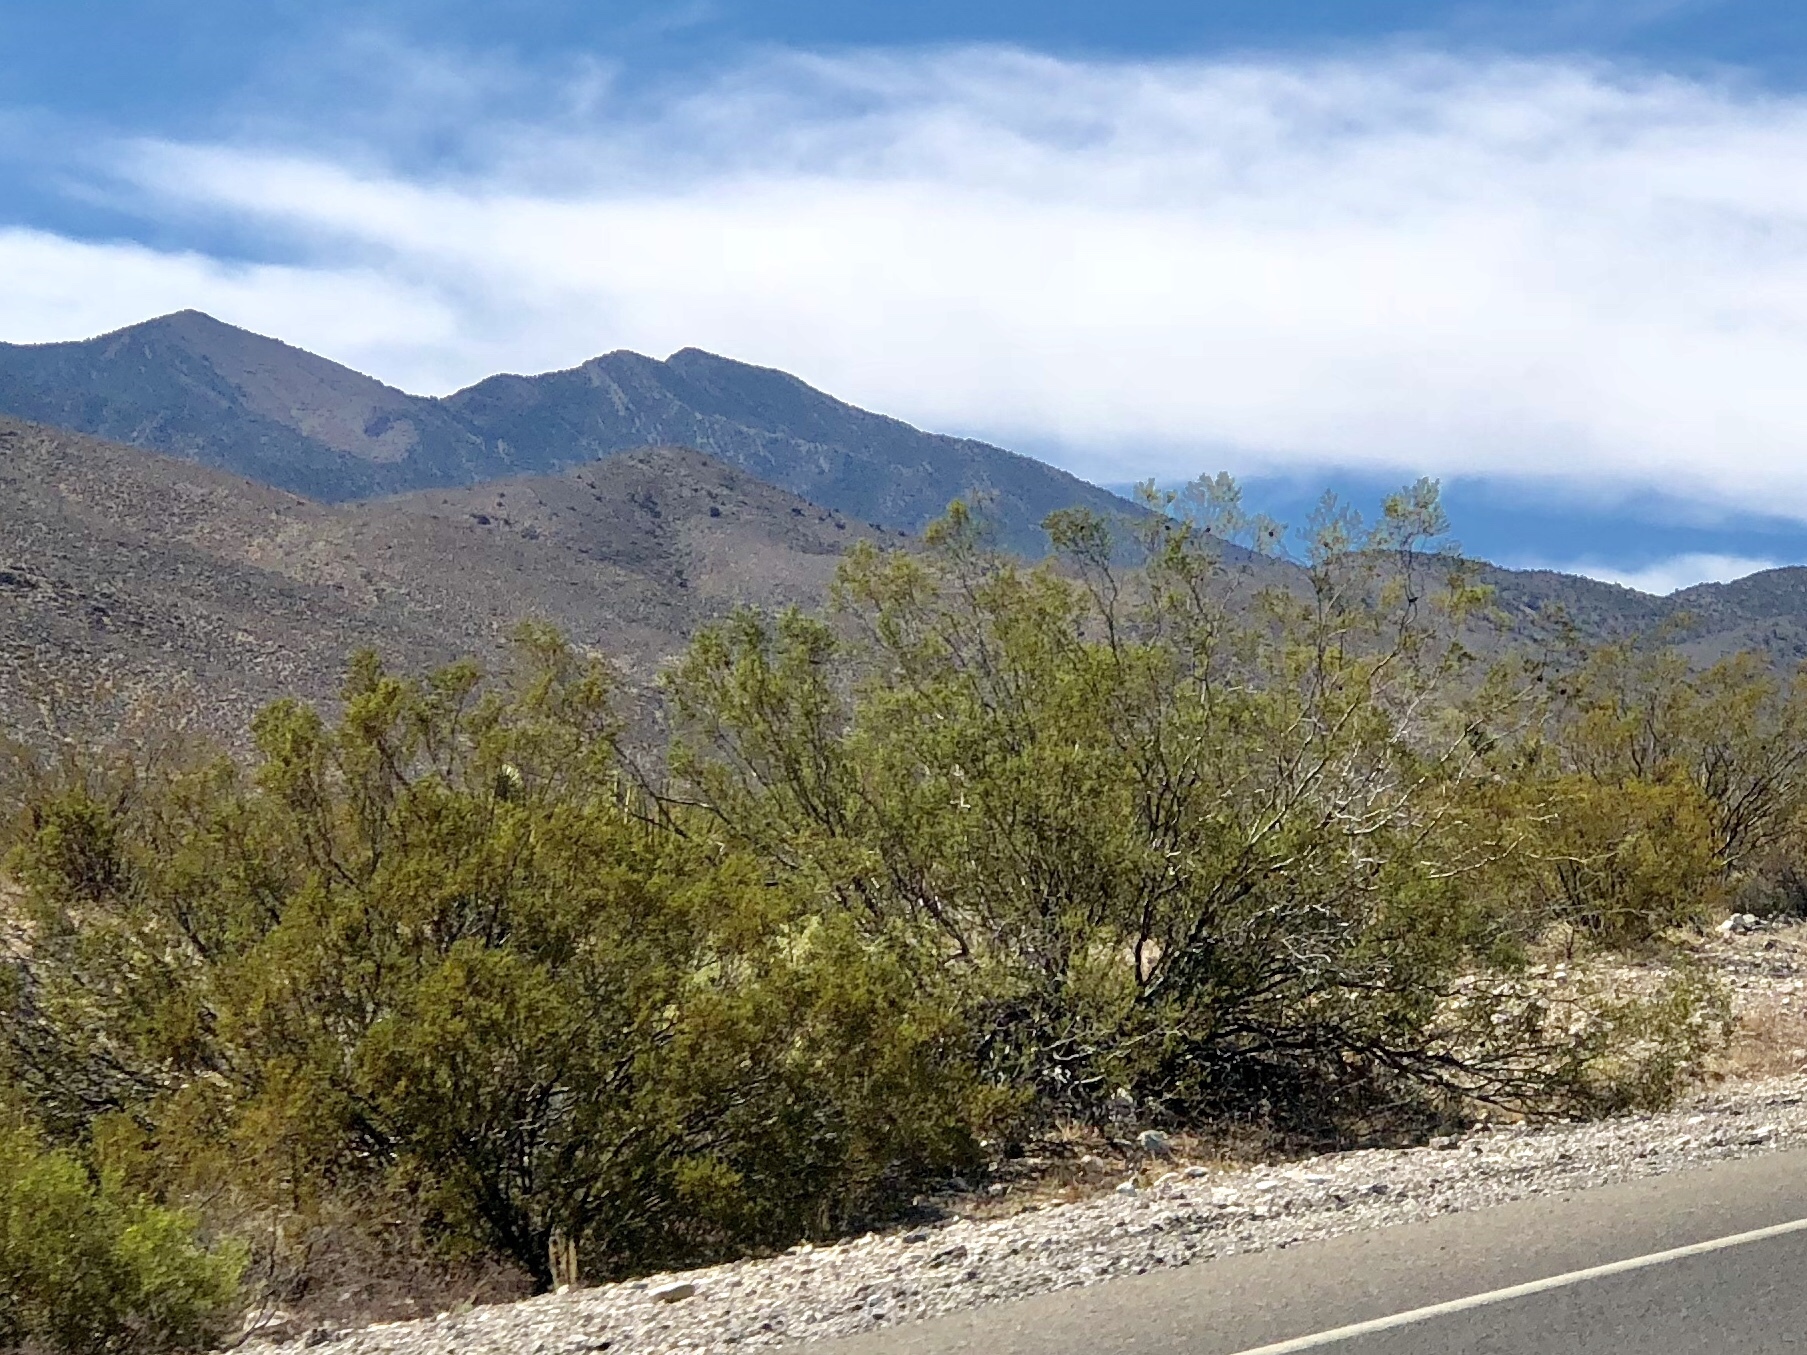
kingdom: Plantae
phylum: Tracheophyta
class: Magnoliopsida
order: Zygophyllales
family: Zygophyllaceae
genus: Larrea
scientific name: Larrea tridentata
